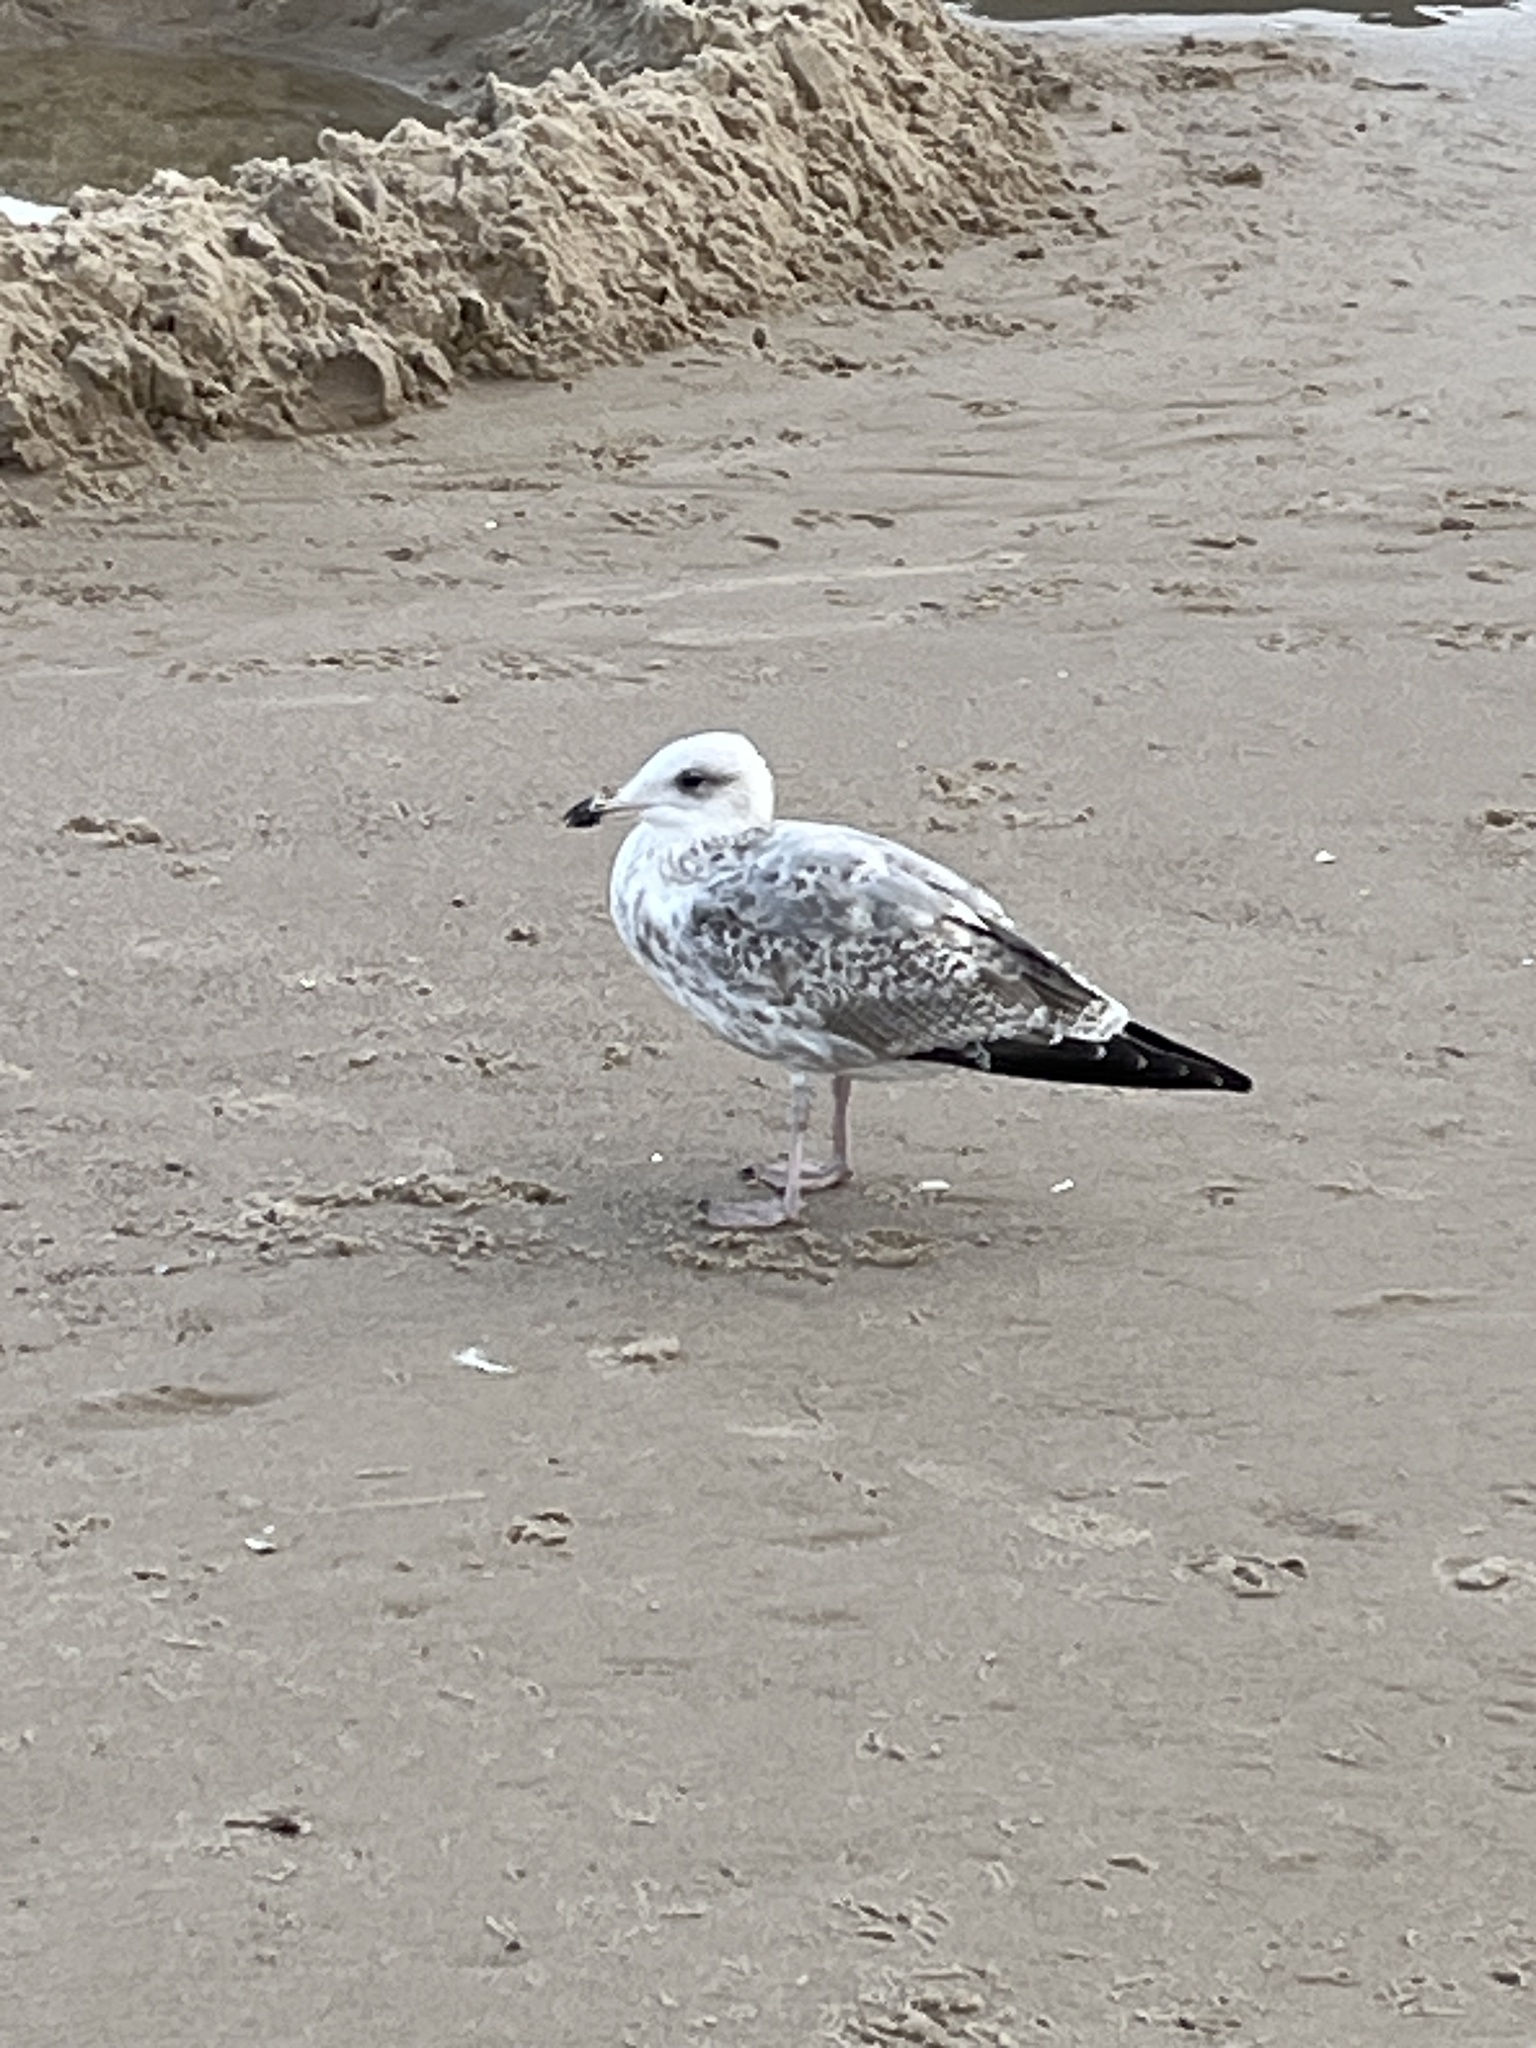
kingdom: Animalia
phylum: Chordata
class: Aves
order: Charadriiformes
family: Laridae
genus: Larus
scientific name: Larus argentatus
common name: Herring gull
